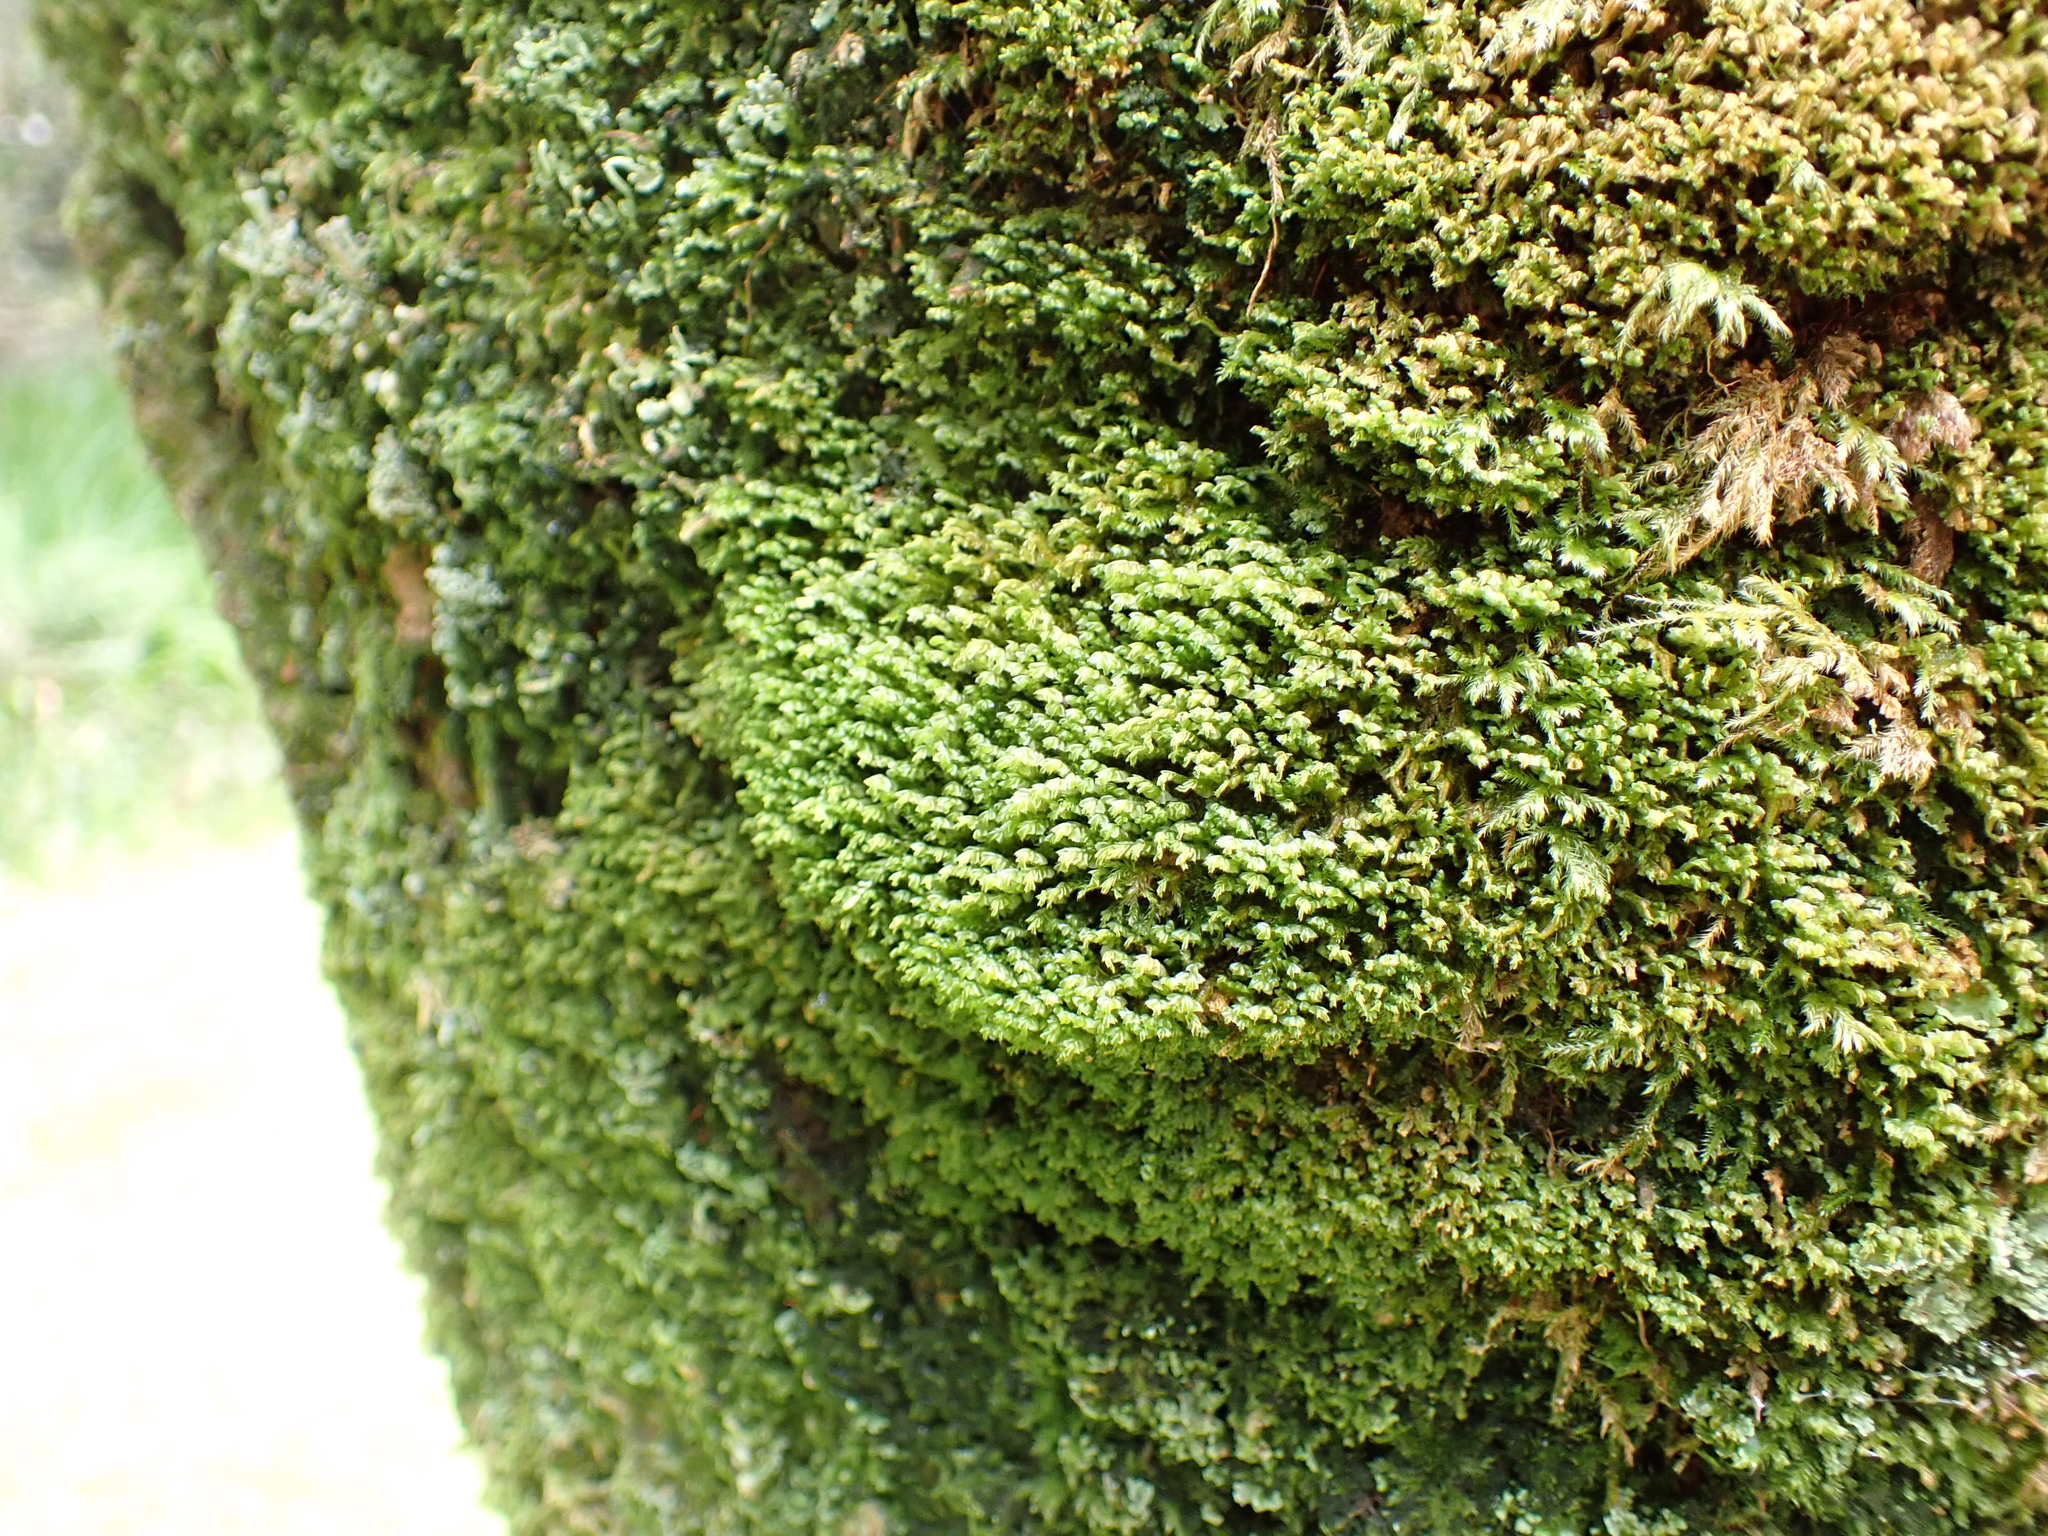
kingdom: Plantae
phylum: Marchantiophyta
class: Jungermanniopsida
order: Jungermanniales
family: Plagiochilaceae
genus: Plagiochila
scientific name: Plagiochila porelloides
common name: Lesser featherwort
